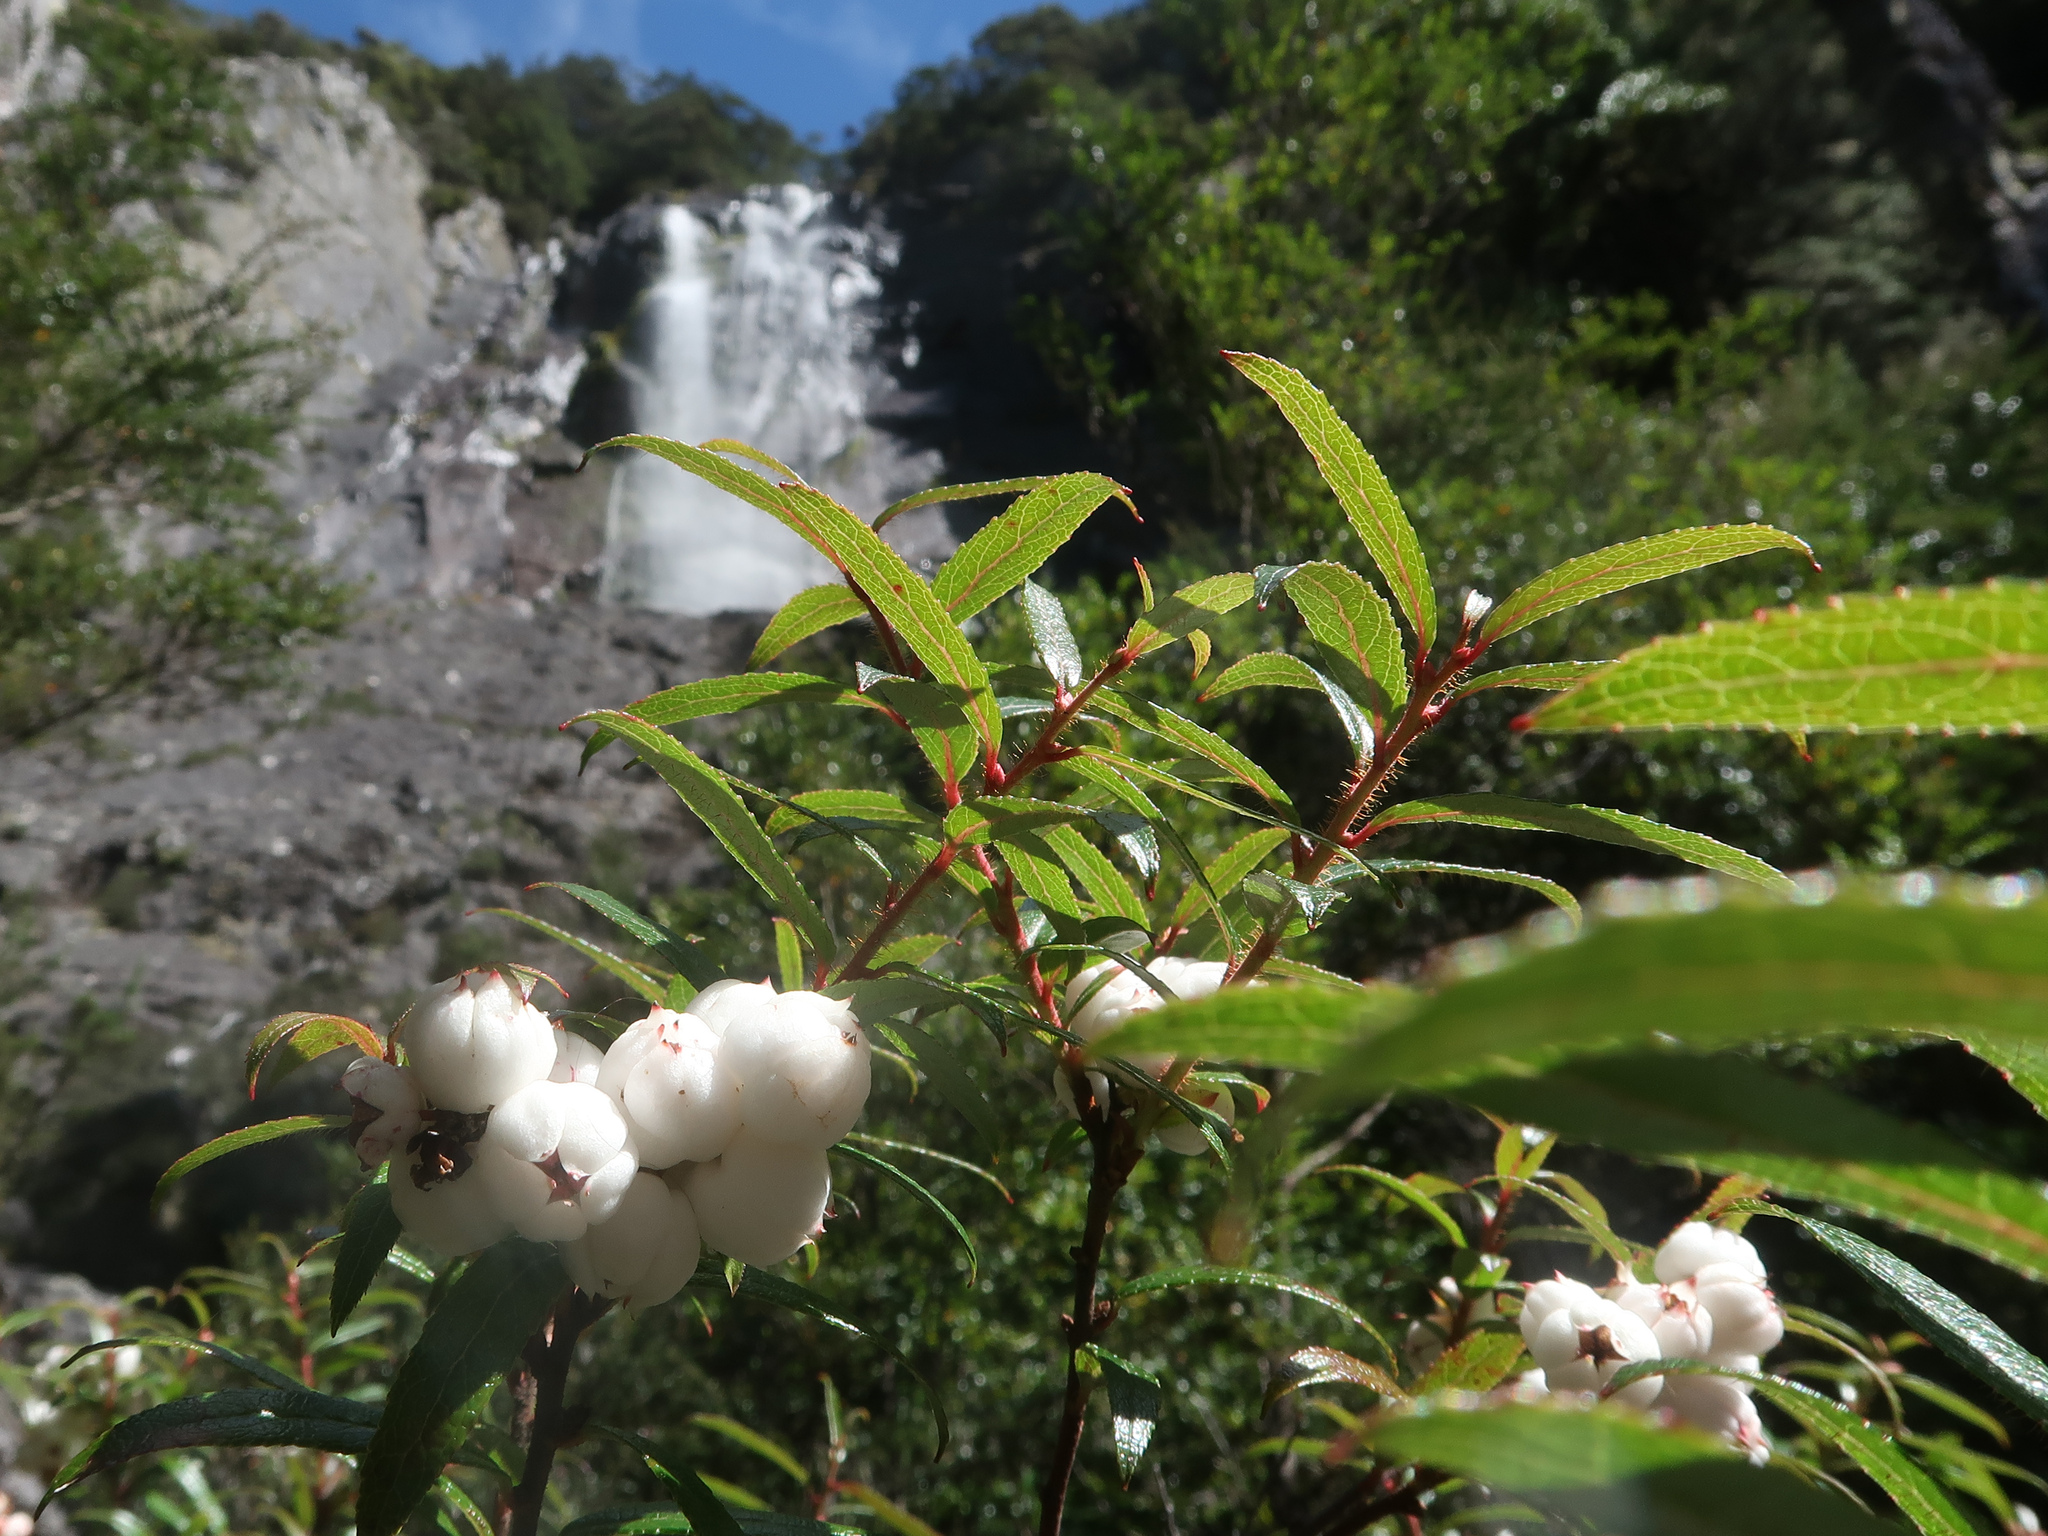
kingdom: Plantae
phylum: Tracheophyta
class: Magnoliopsida
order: Ericales
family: Ericaceae
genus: Gaultheria
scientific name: Gaultheria hispida
